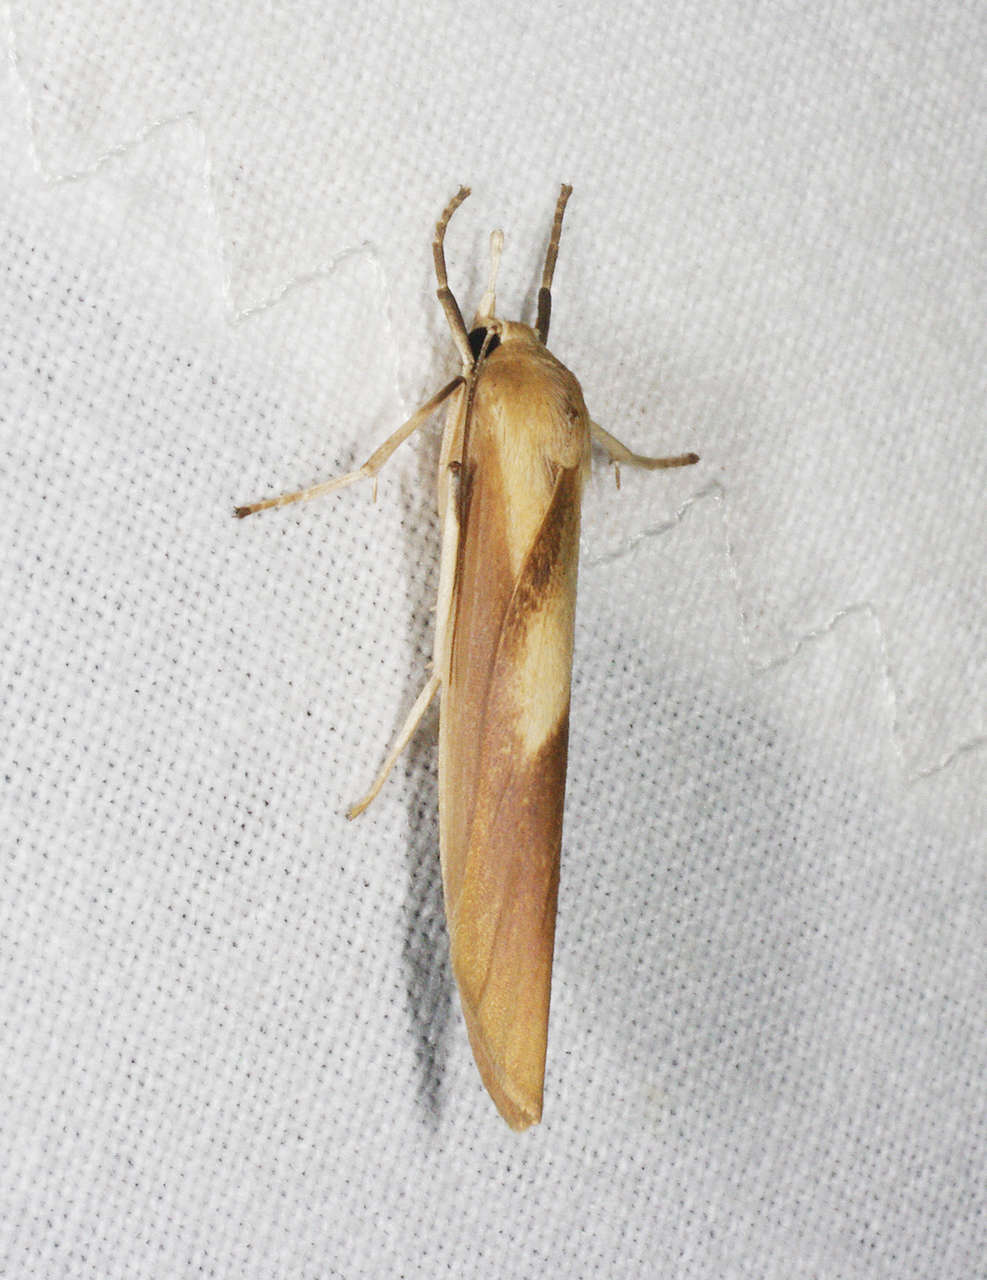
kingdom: Animalia
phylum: Arthropoda
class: Insecta
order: Lepidoptera
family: Erebidae
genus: Calamidia
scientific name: Calamidia hirta
